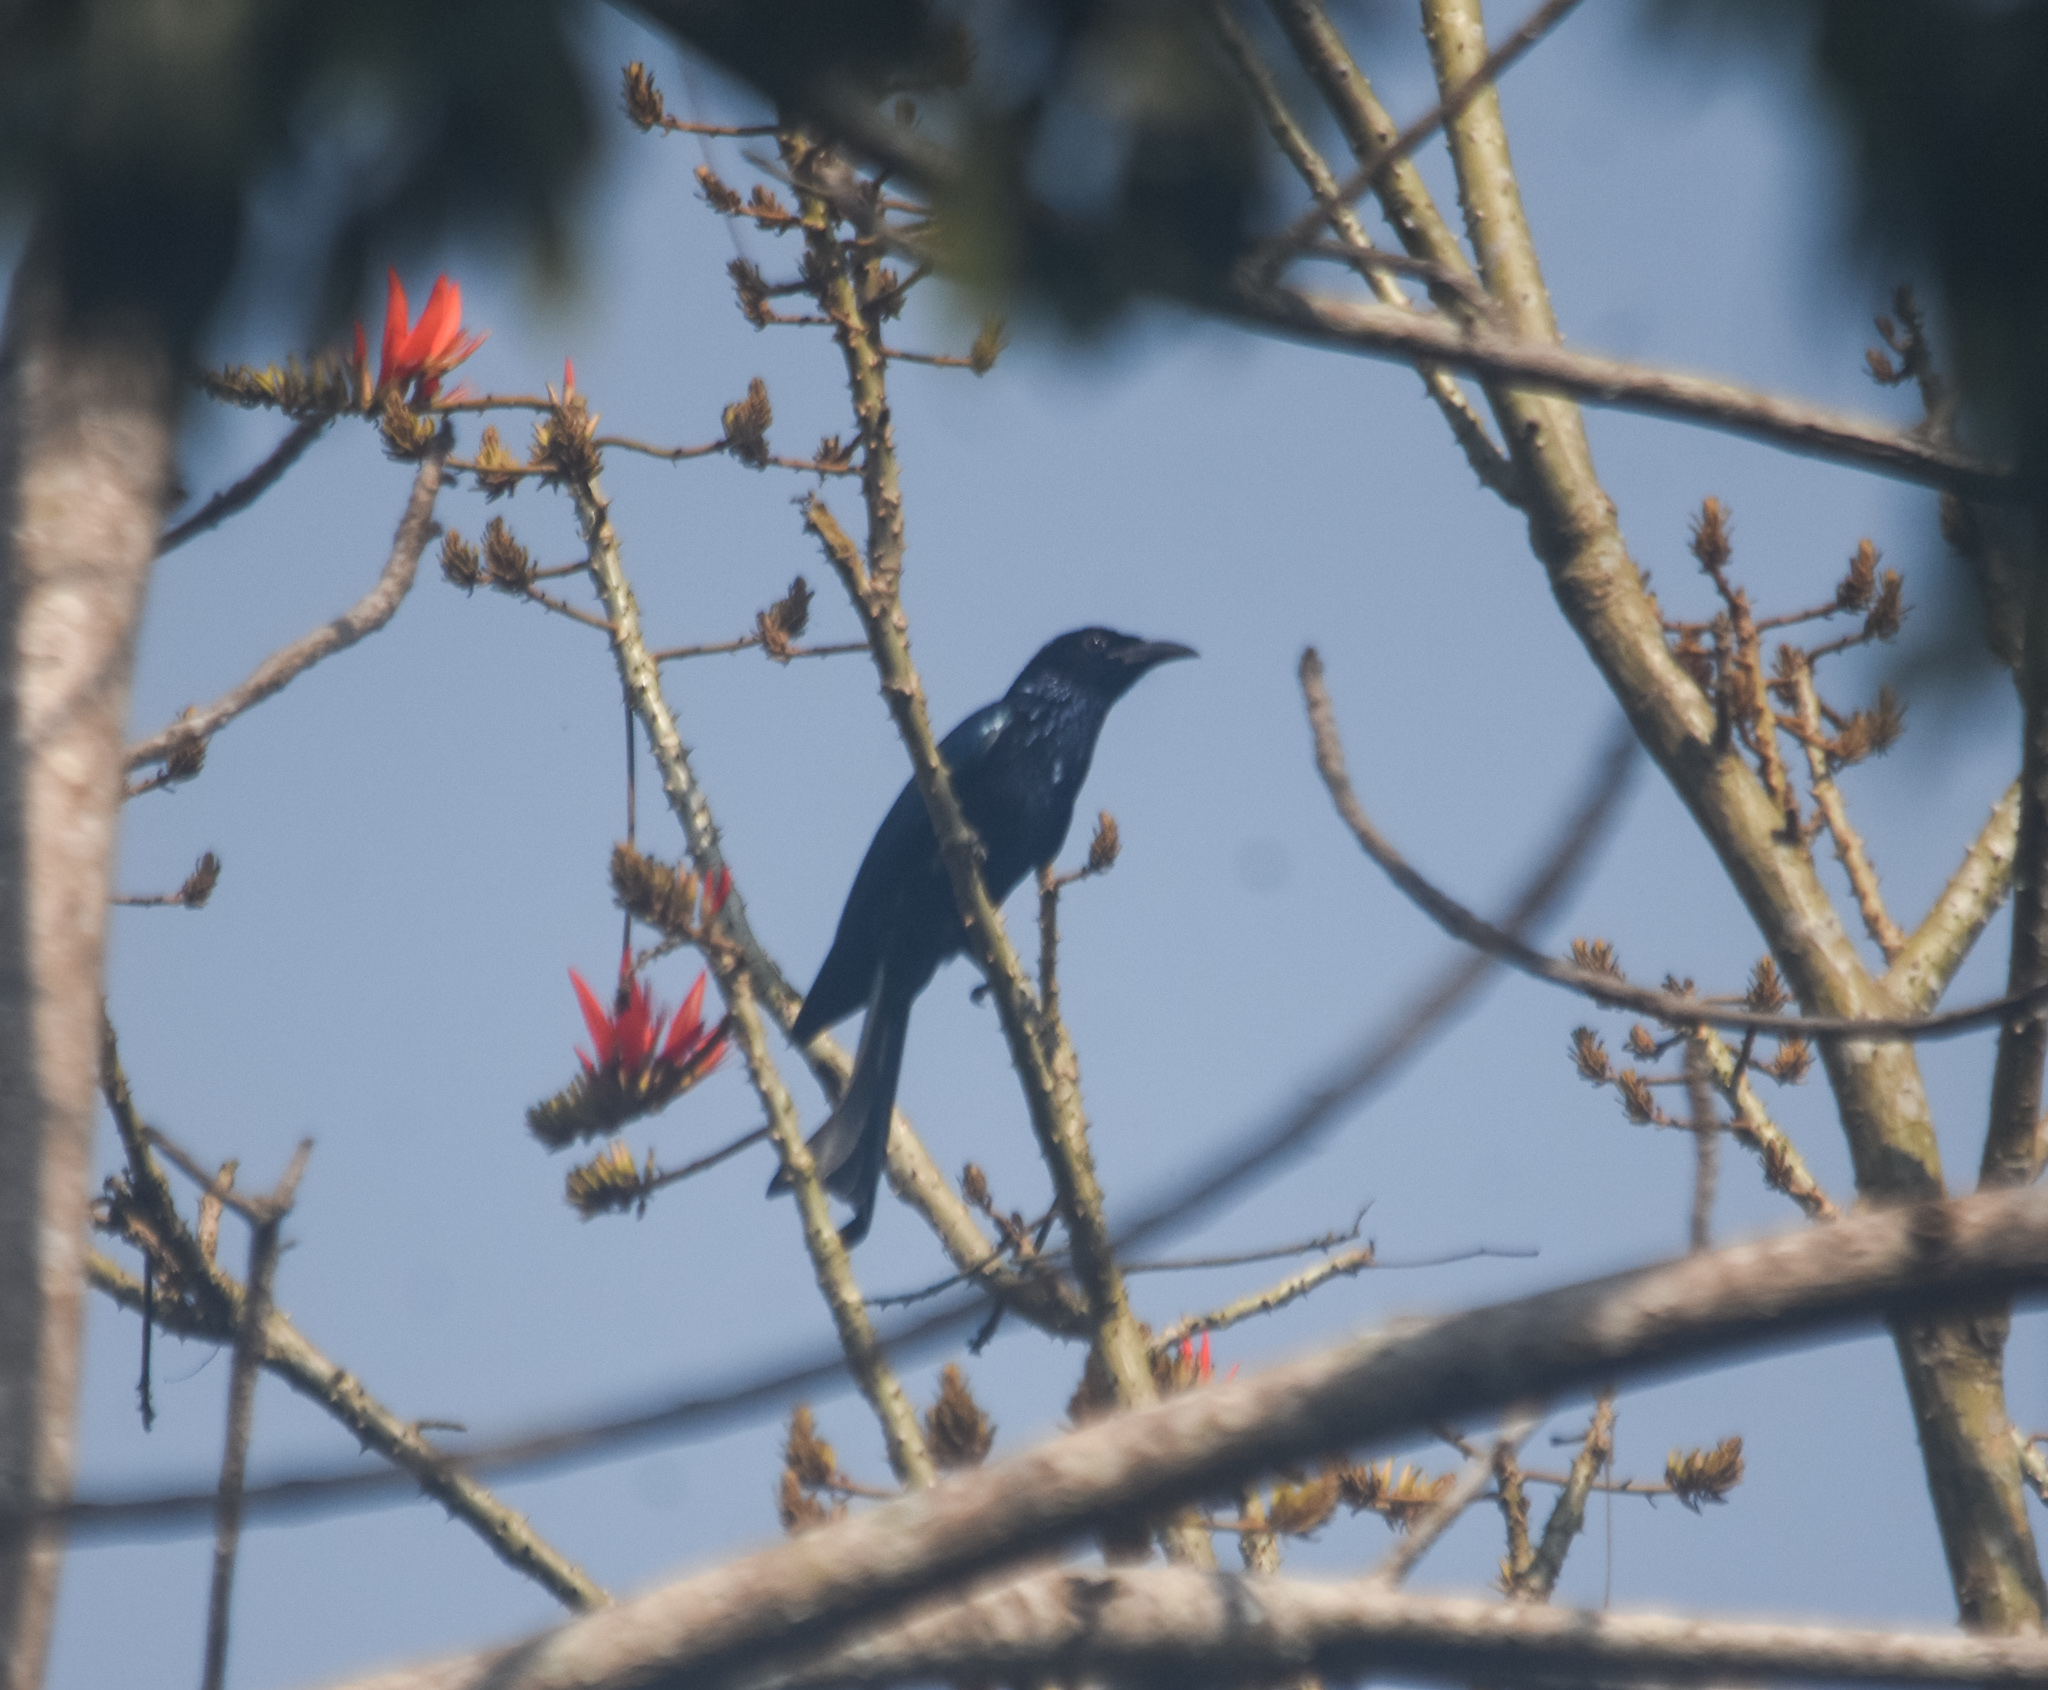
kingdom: Animalia
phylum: Chordata
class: Aves
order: Passeriformes
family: Dicruridae
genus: Dicrurus
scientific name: Dicrurus hottentottus
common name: Hair-crested drongo
